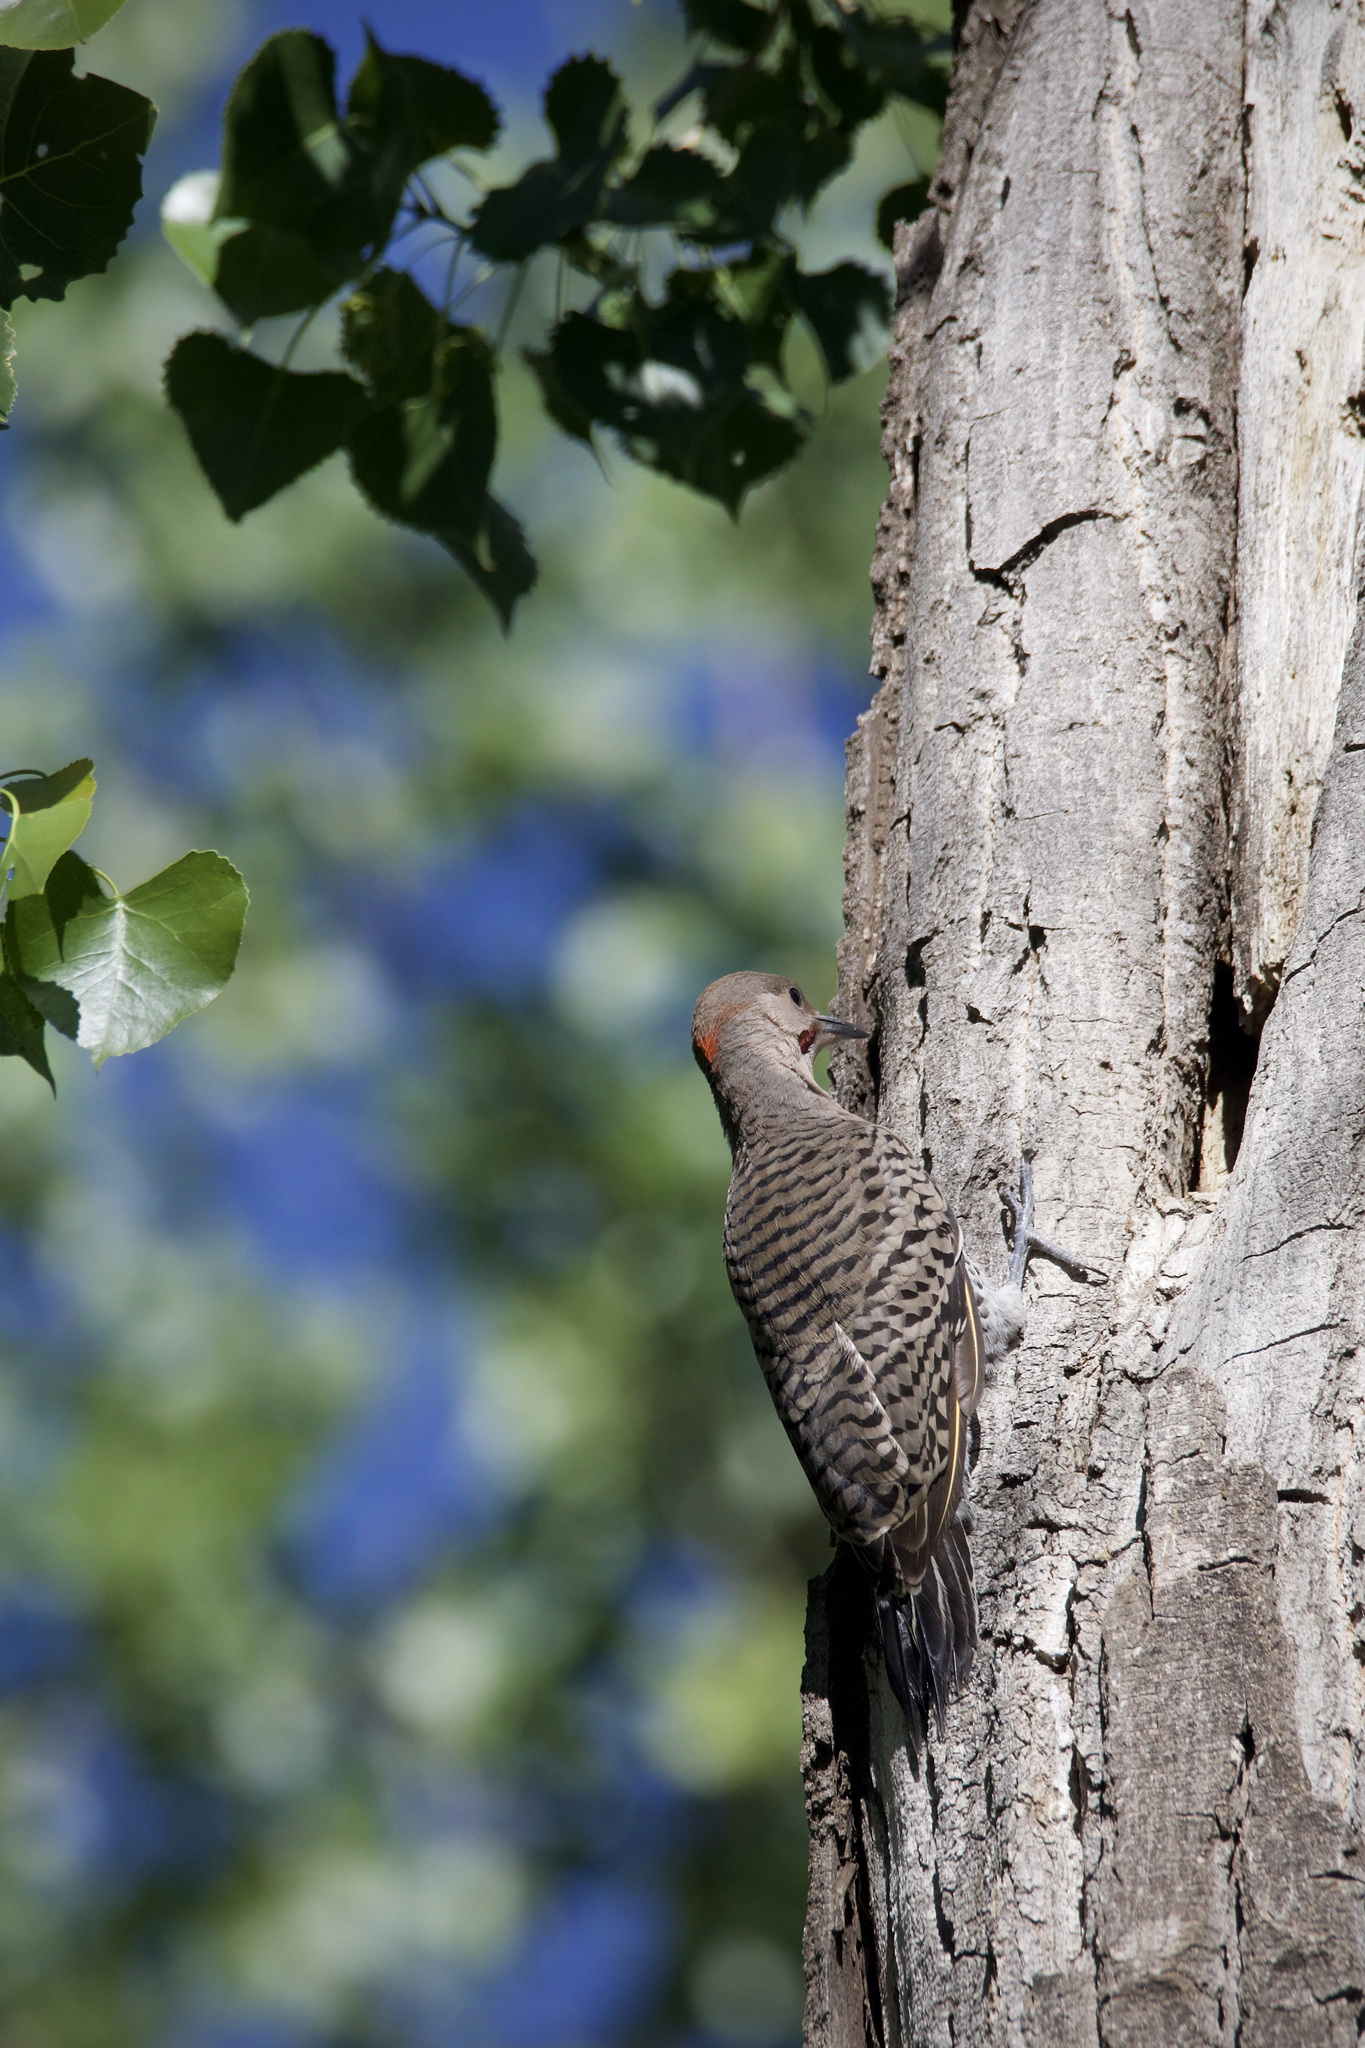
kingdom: Animalia
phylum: Chordata
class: Aves
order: Piciformes
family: Picidae
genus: Colaptes
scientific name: Colaptes auratus
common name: Northern flicker
